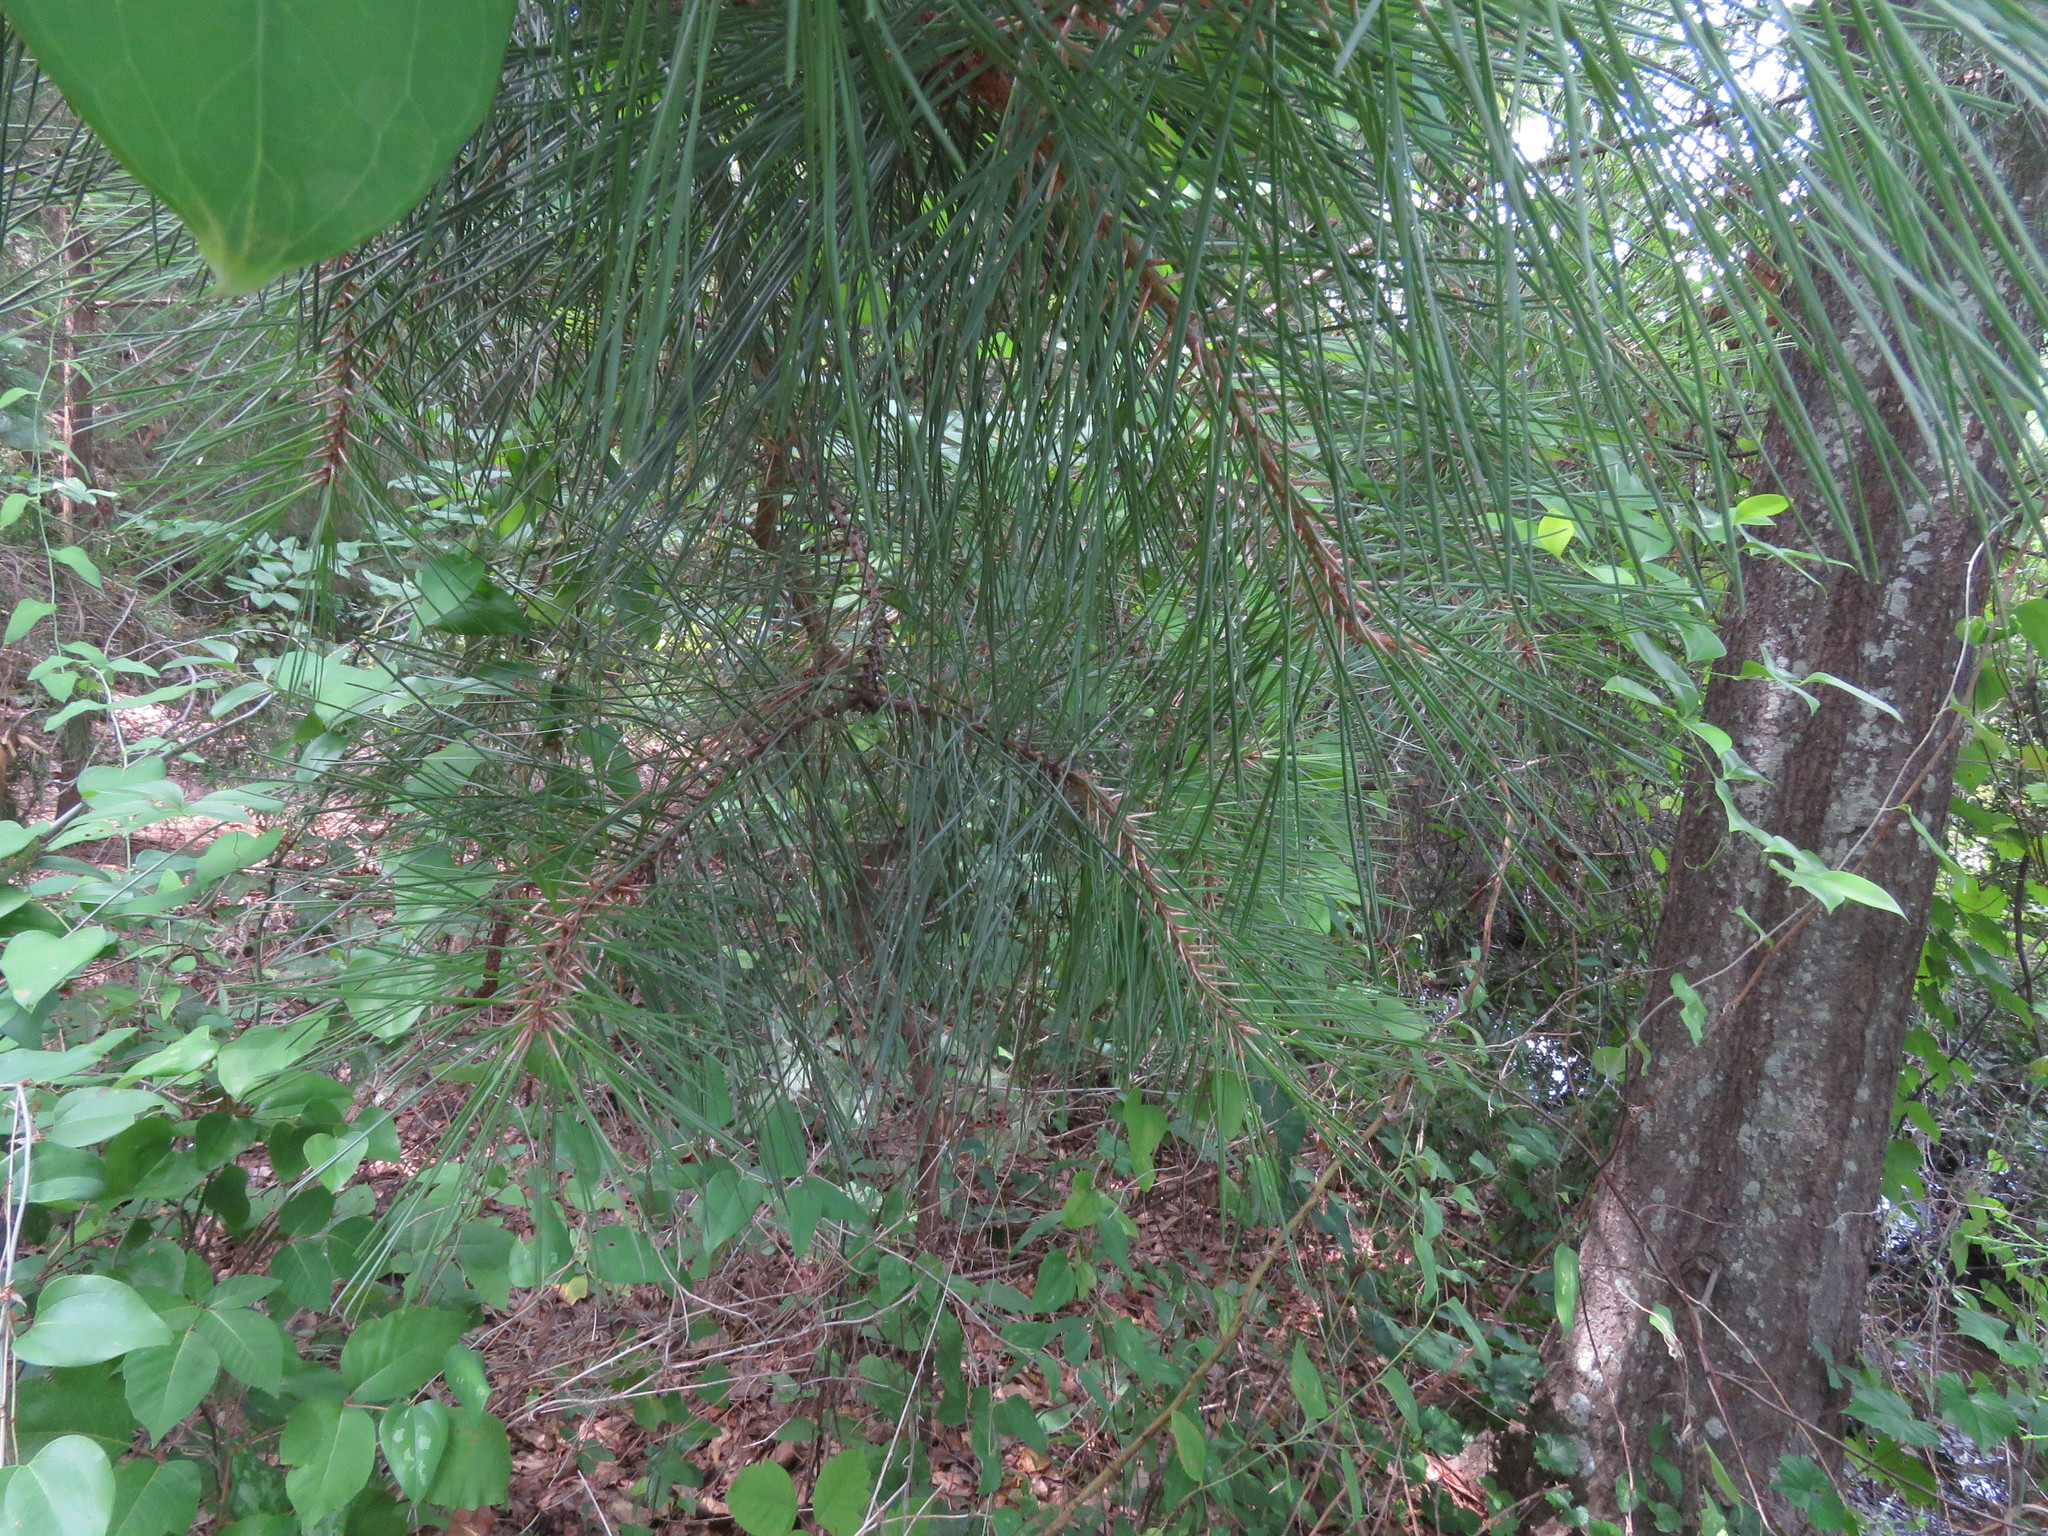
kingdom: Plantae
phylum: Tracheophyta
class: Pinopsida
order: Pinales
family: Pinaceae
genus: Pinus
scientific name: Pinus taeda
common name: Loblolly pine
